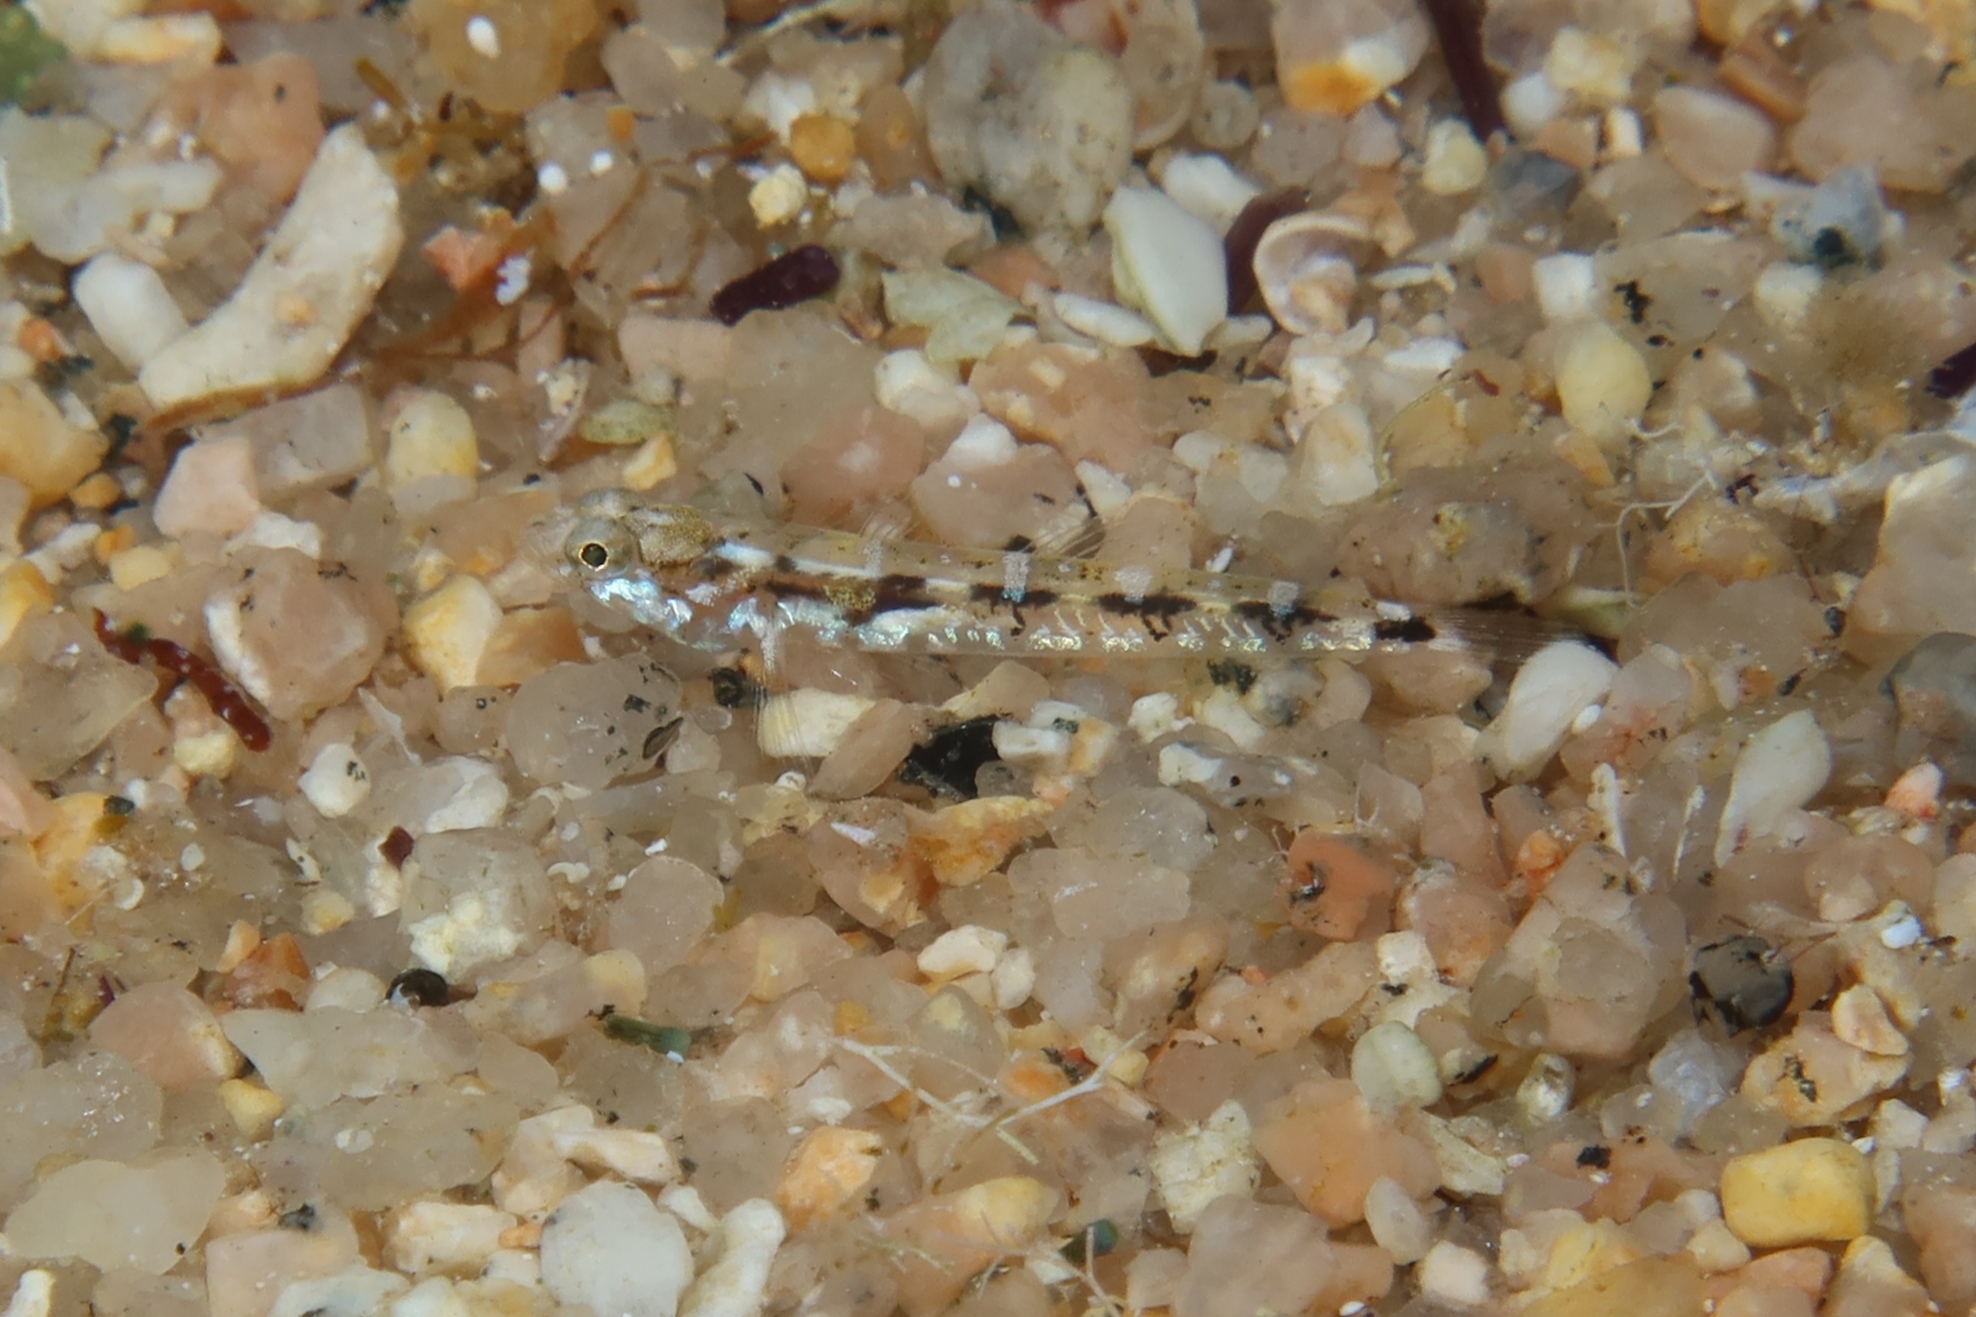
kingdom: Animalia
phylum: Chordata
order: Perciformes
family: Gobiidae
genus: Pomatoschistus
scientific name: Pomatoschistus bathi
